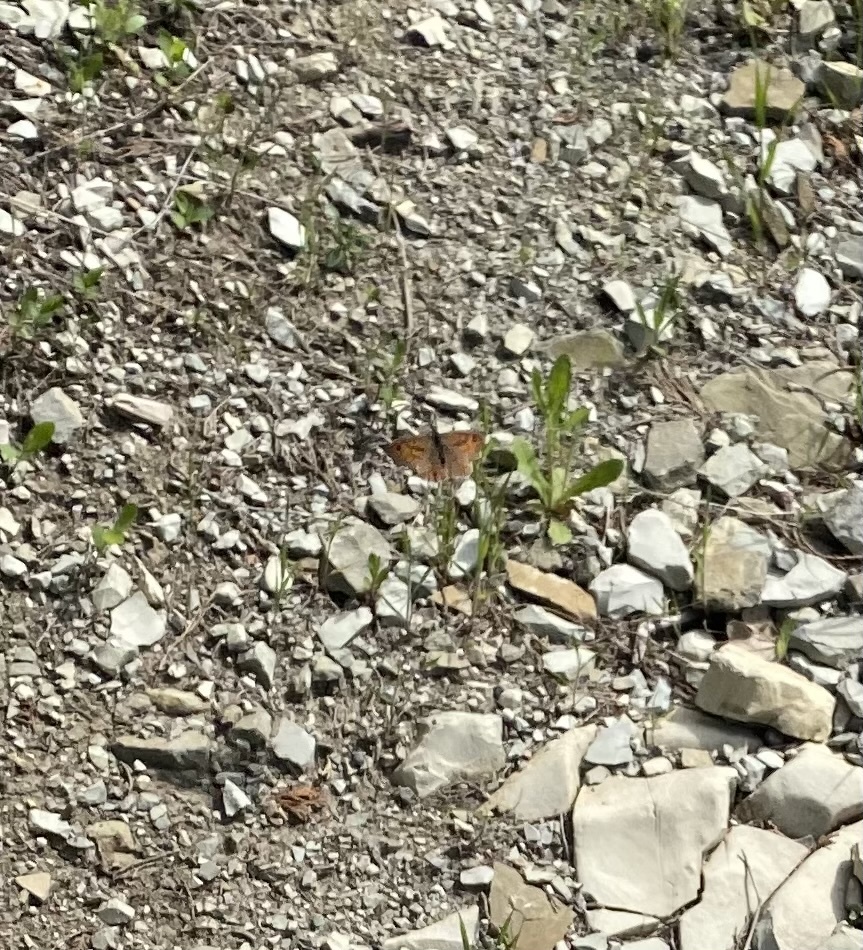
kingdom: Animalia
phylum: Arthropoda
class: Insecta
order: Lepidoptera
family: Nymphalidae
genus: Pararge
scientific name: Pararge Lasiommata megera
